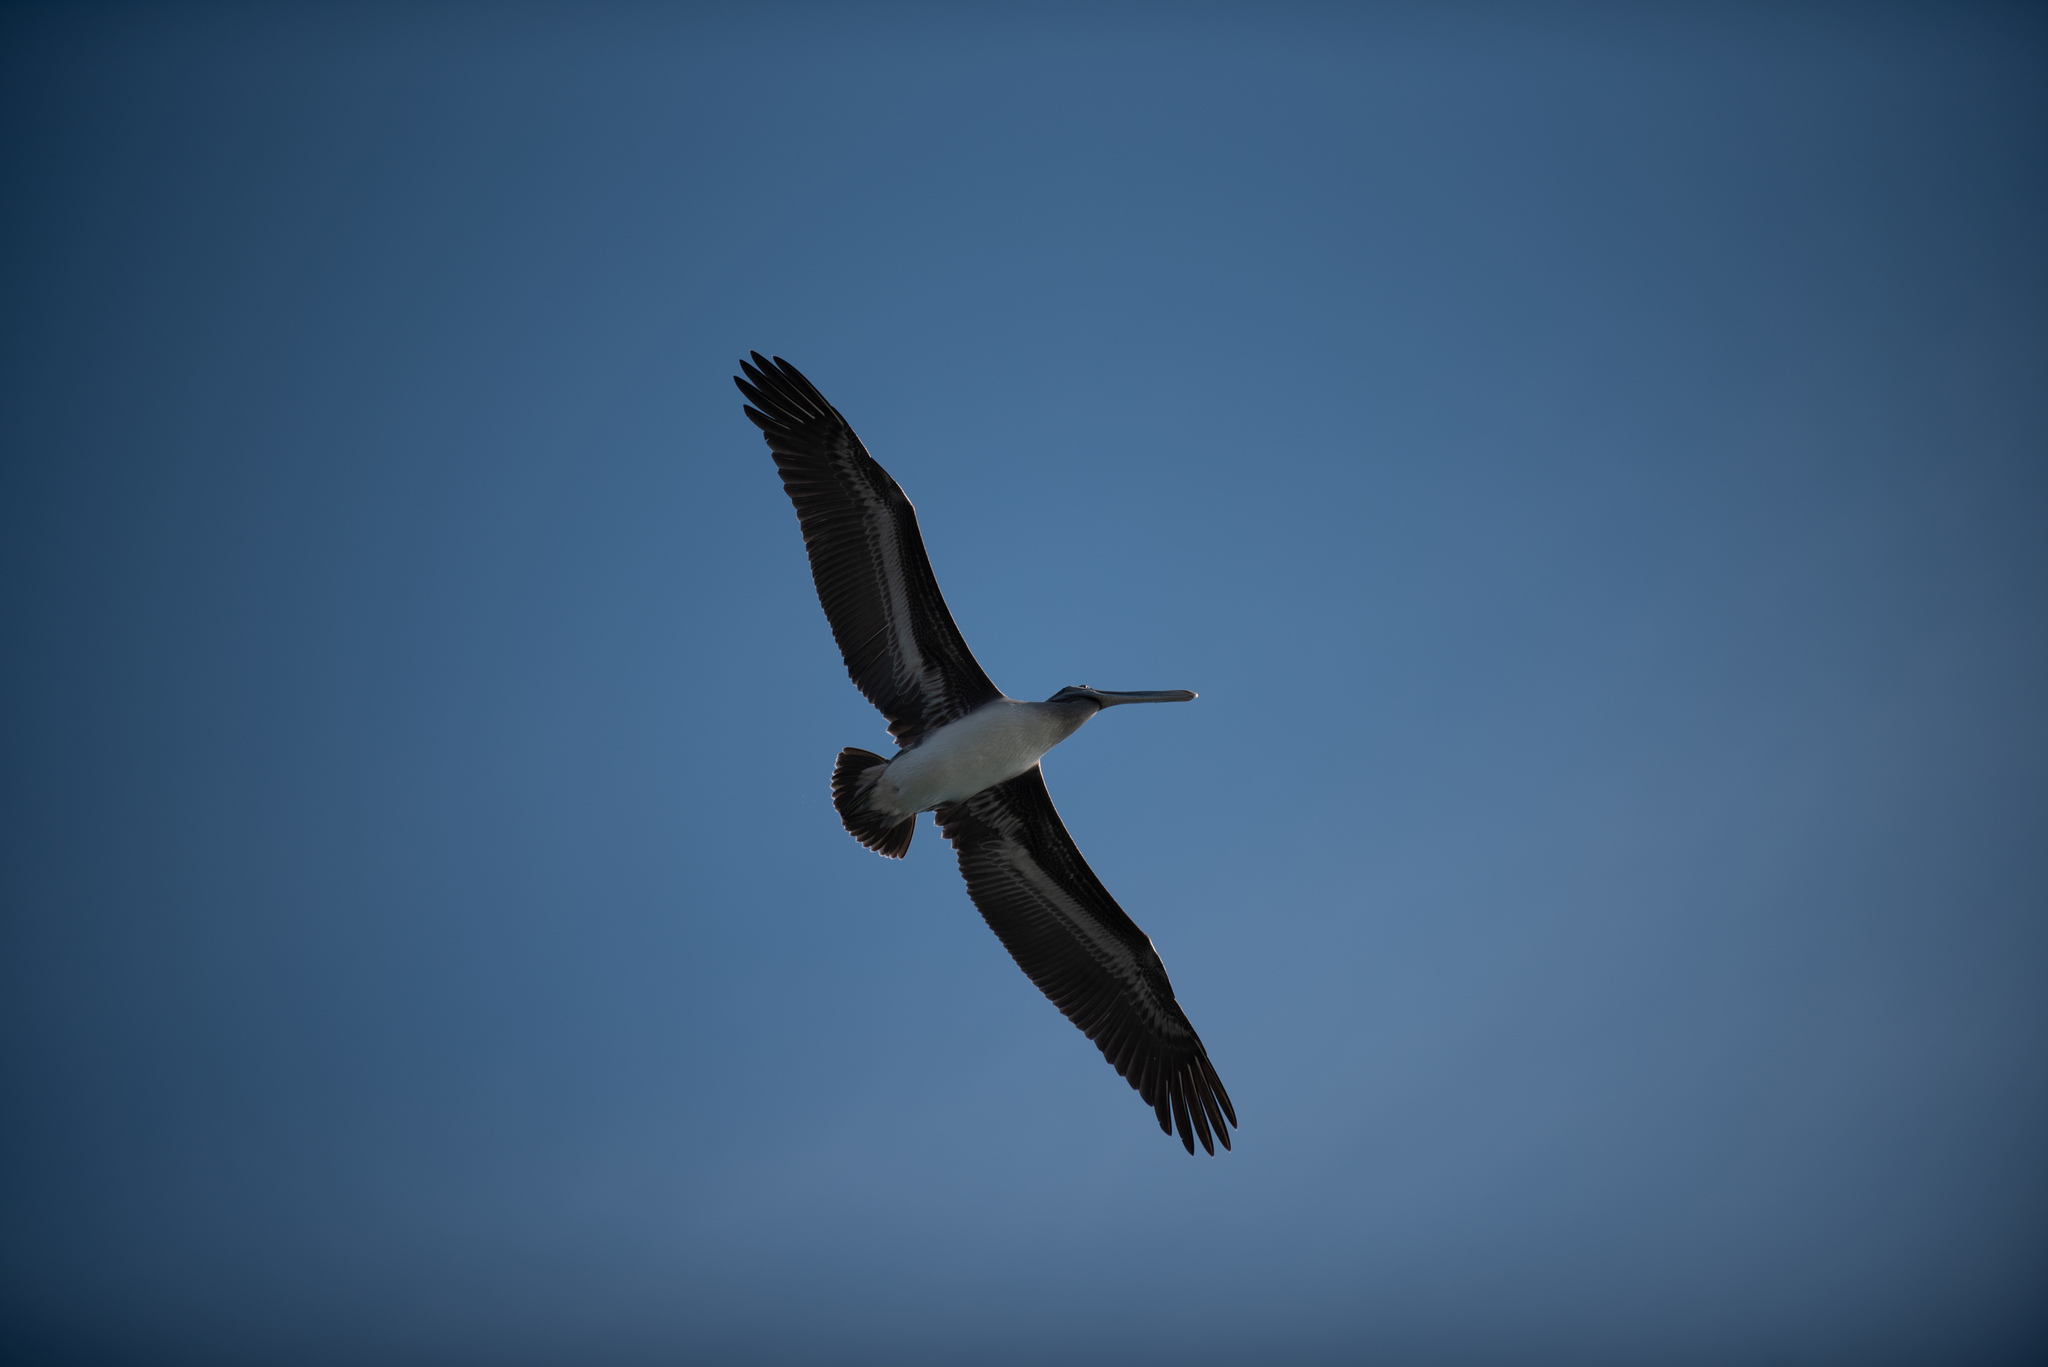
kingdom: Animalia
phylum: Chordata
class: Aves
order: Pelecaniformes
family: Pelecanidae
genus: Pelecanus
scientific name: Pelecanus occidentalis
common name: Brown pelican
